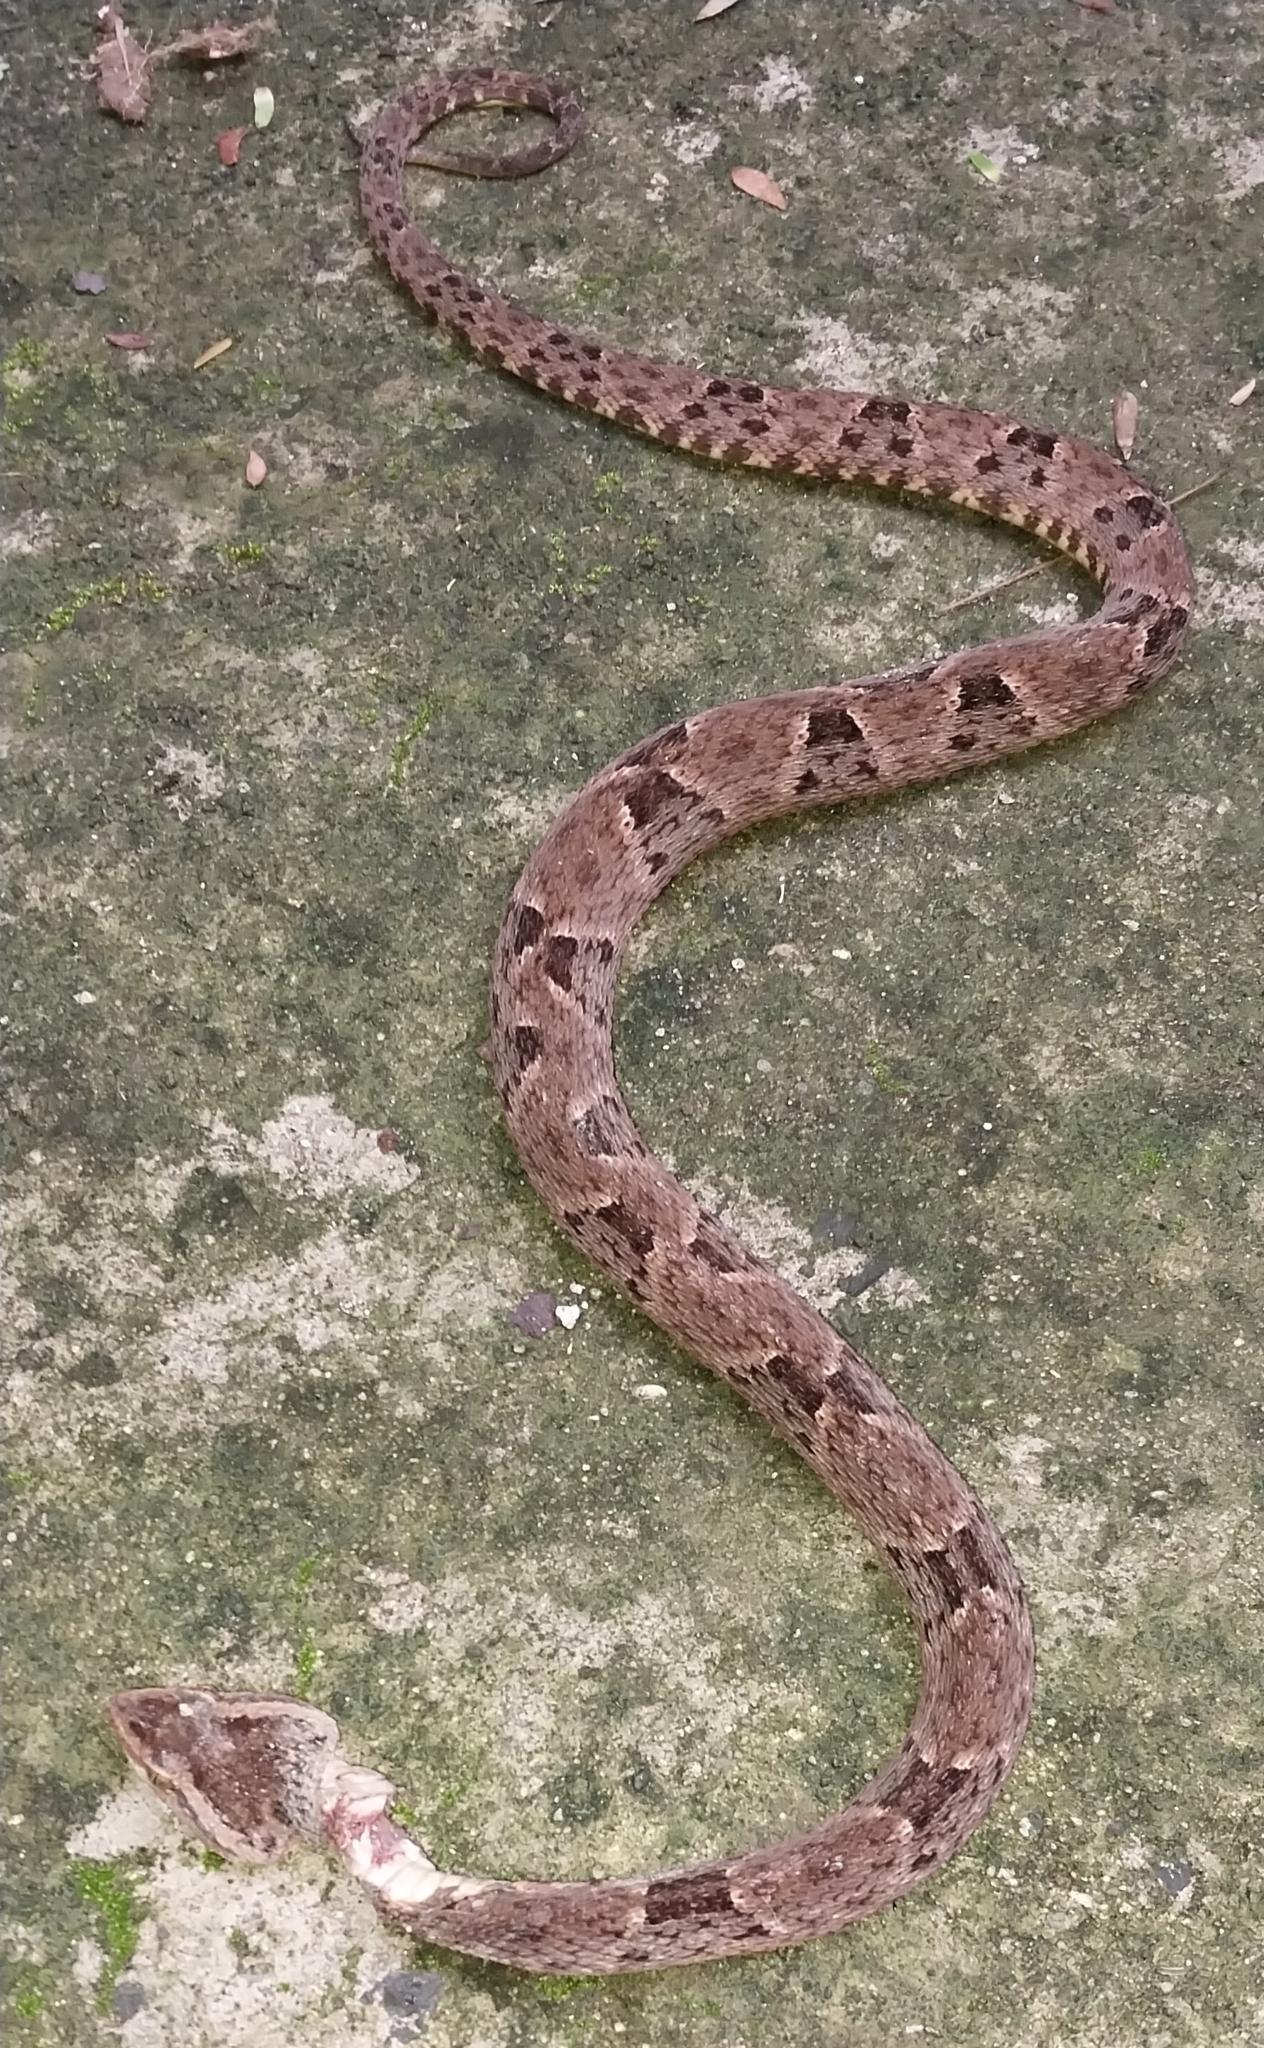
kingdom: Animalia
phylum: Chordata
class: Squamata
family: Viperidae
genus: Bothrops
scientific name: Bothrops asper
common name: Terciopelo
